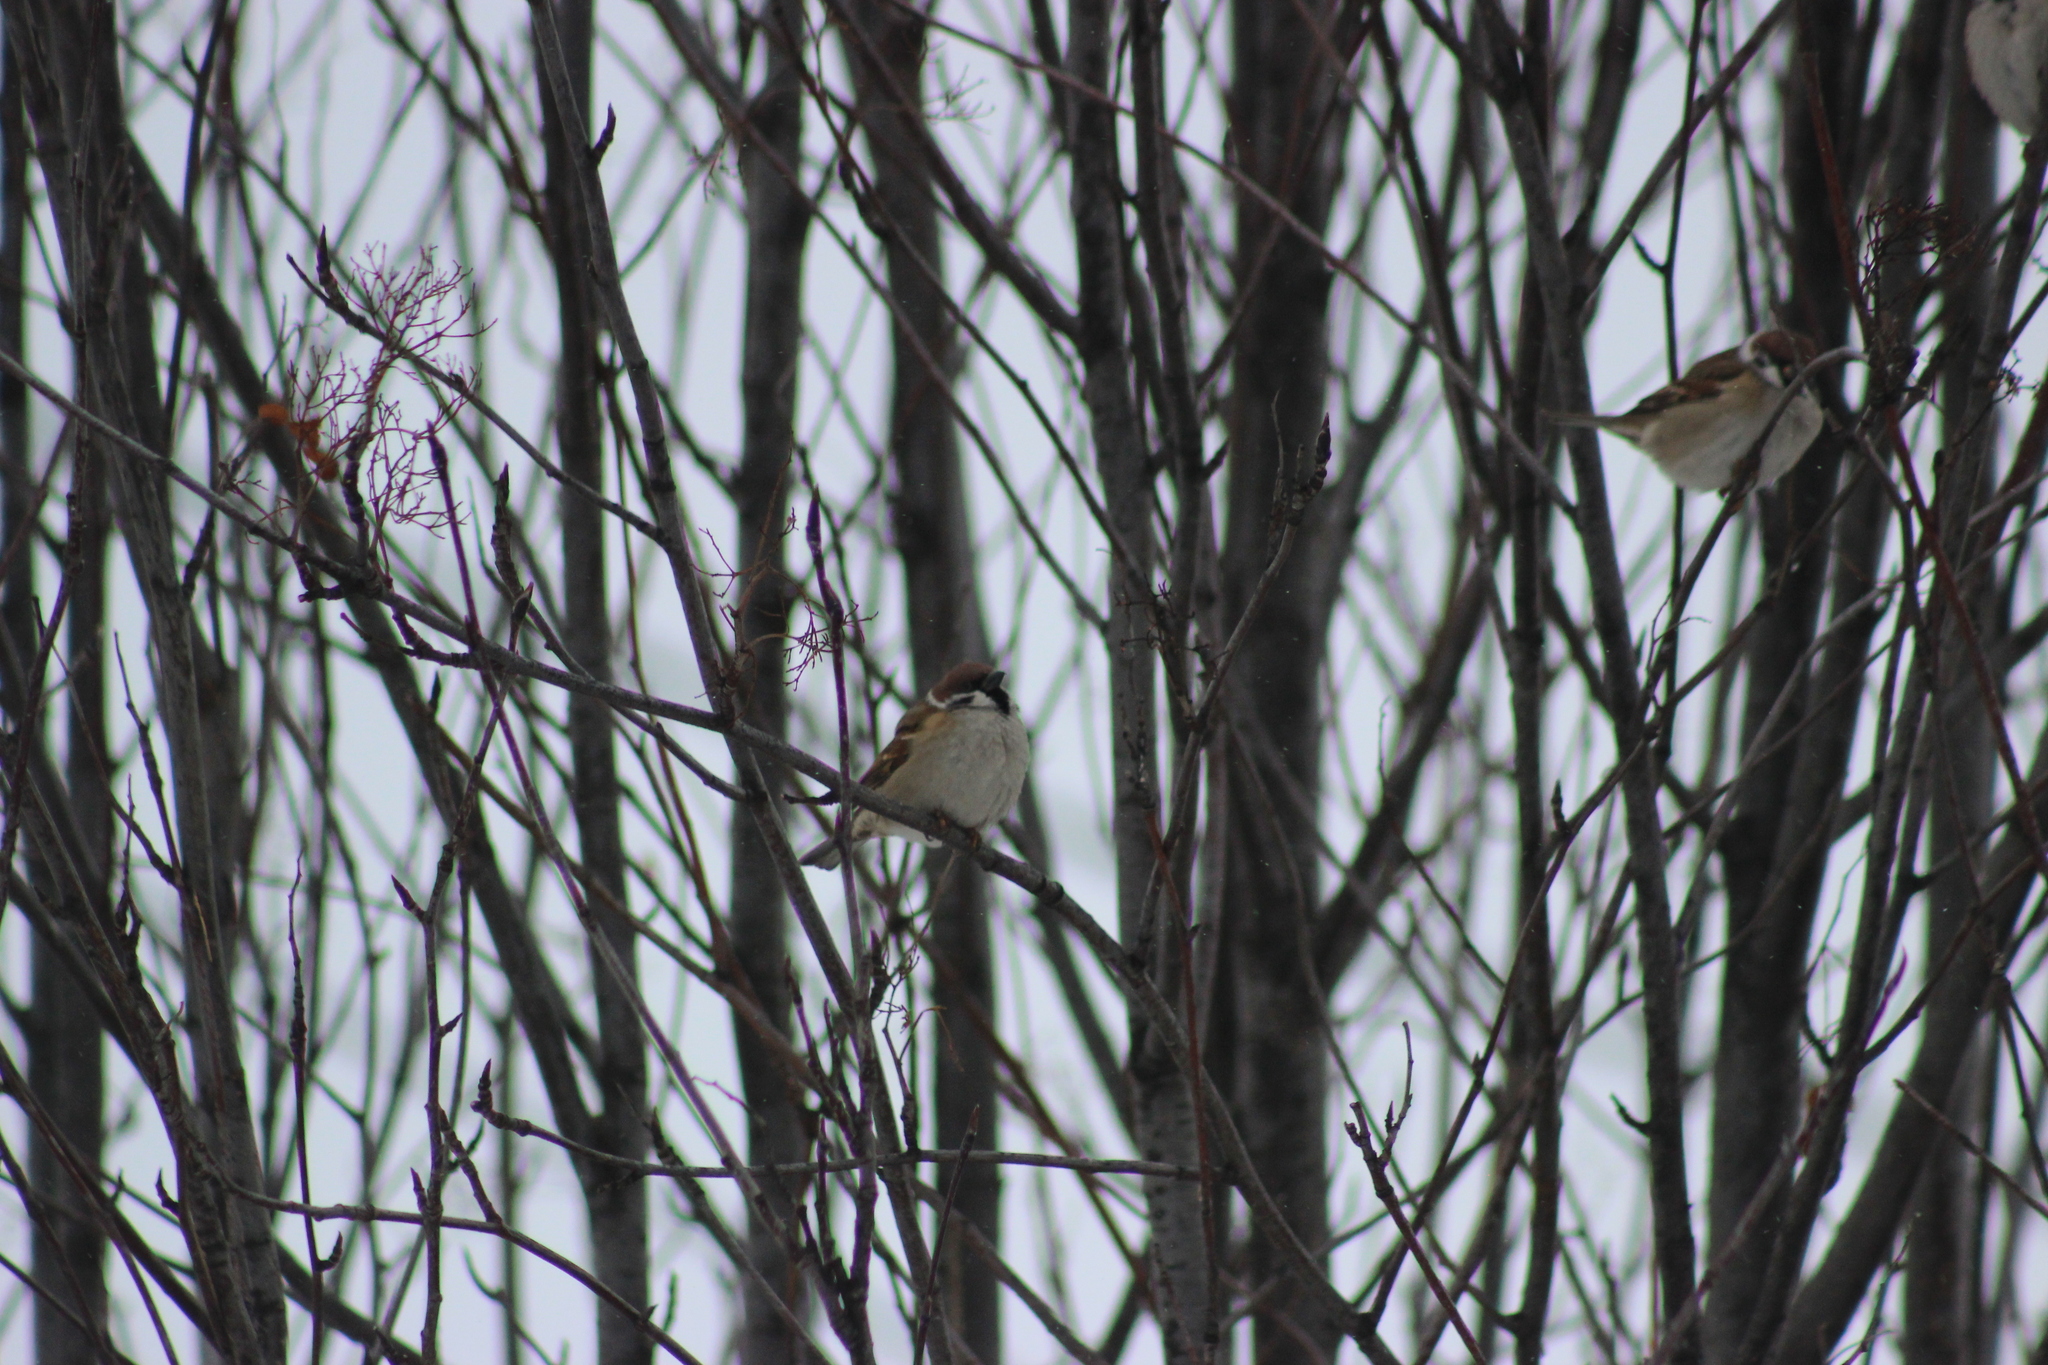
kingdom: Animalia
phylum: Chordata
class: Aves
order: Passeriformes
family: Passeridae
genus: Passer
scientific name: Passer montanus
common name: Eurasian tree sparrow
